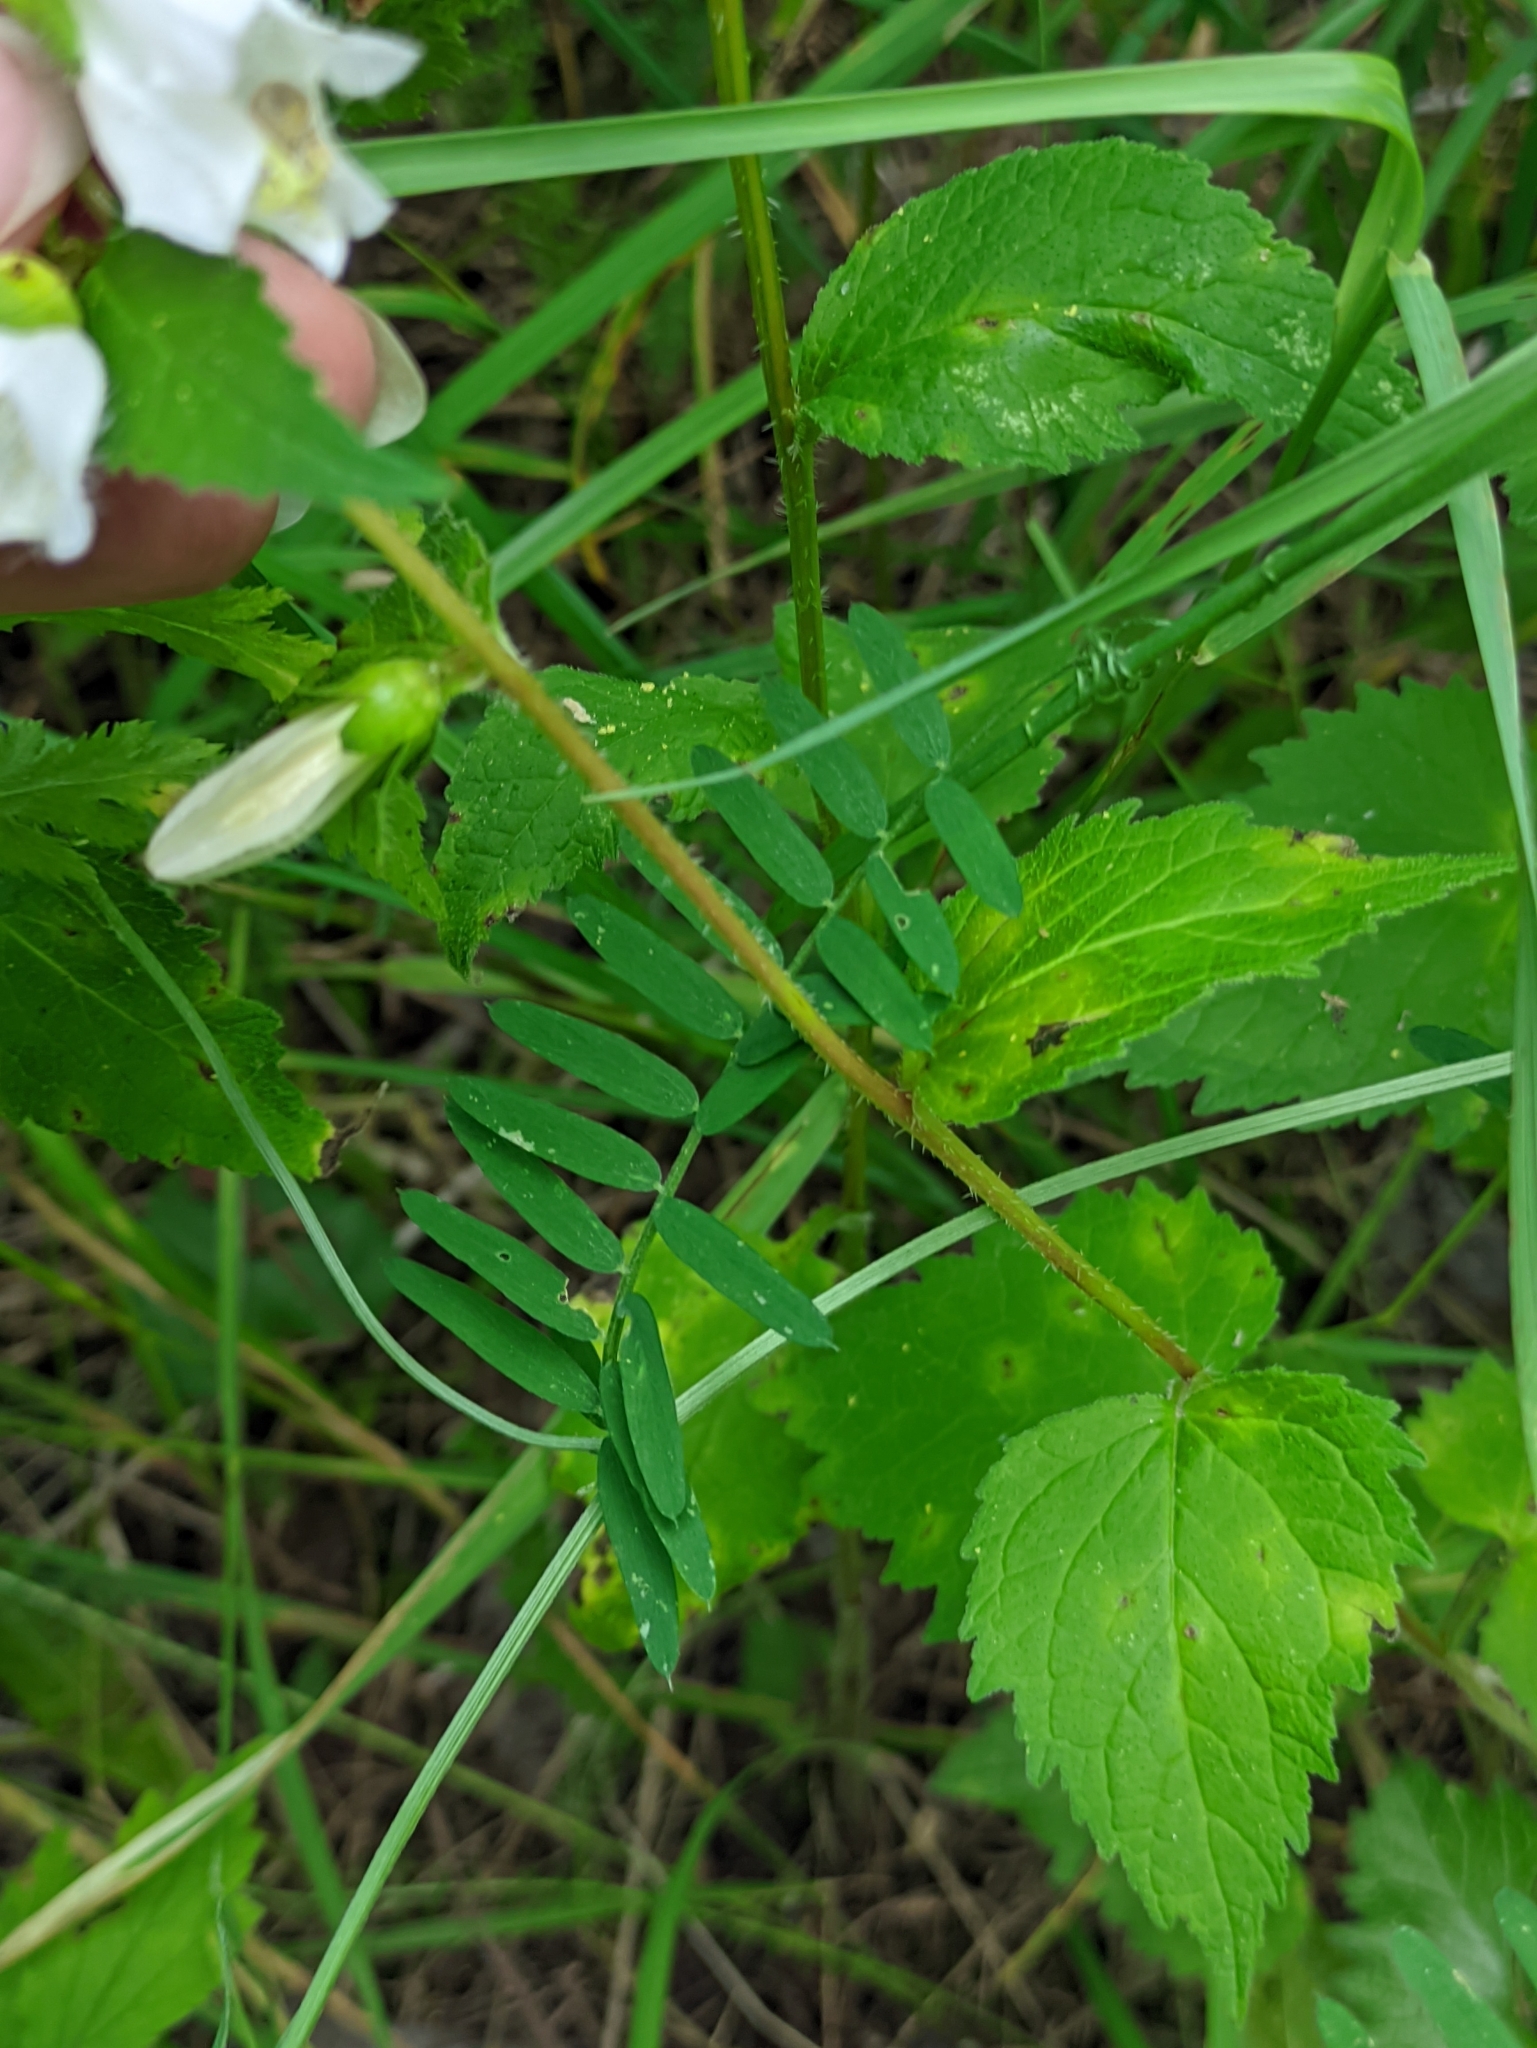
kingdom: Plantae
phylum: Tracheophyta
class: Magnoliopsida
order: Asterales
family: Campanulaceae
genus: Campanula
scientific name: Campanula trachelium
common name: Nettle-leaved bellflower
